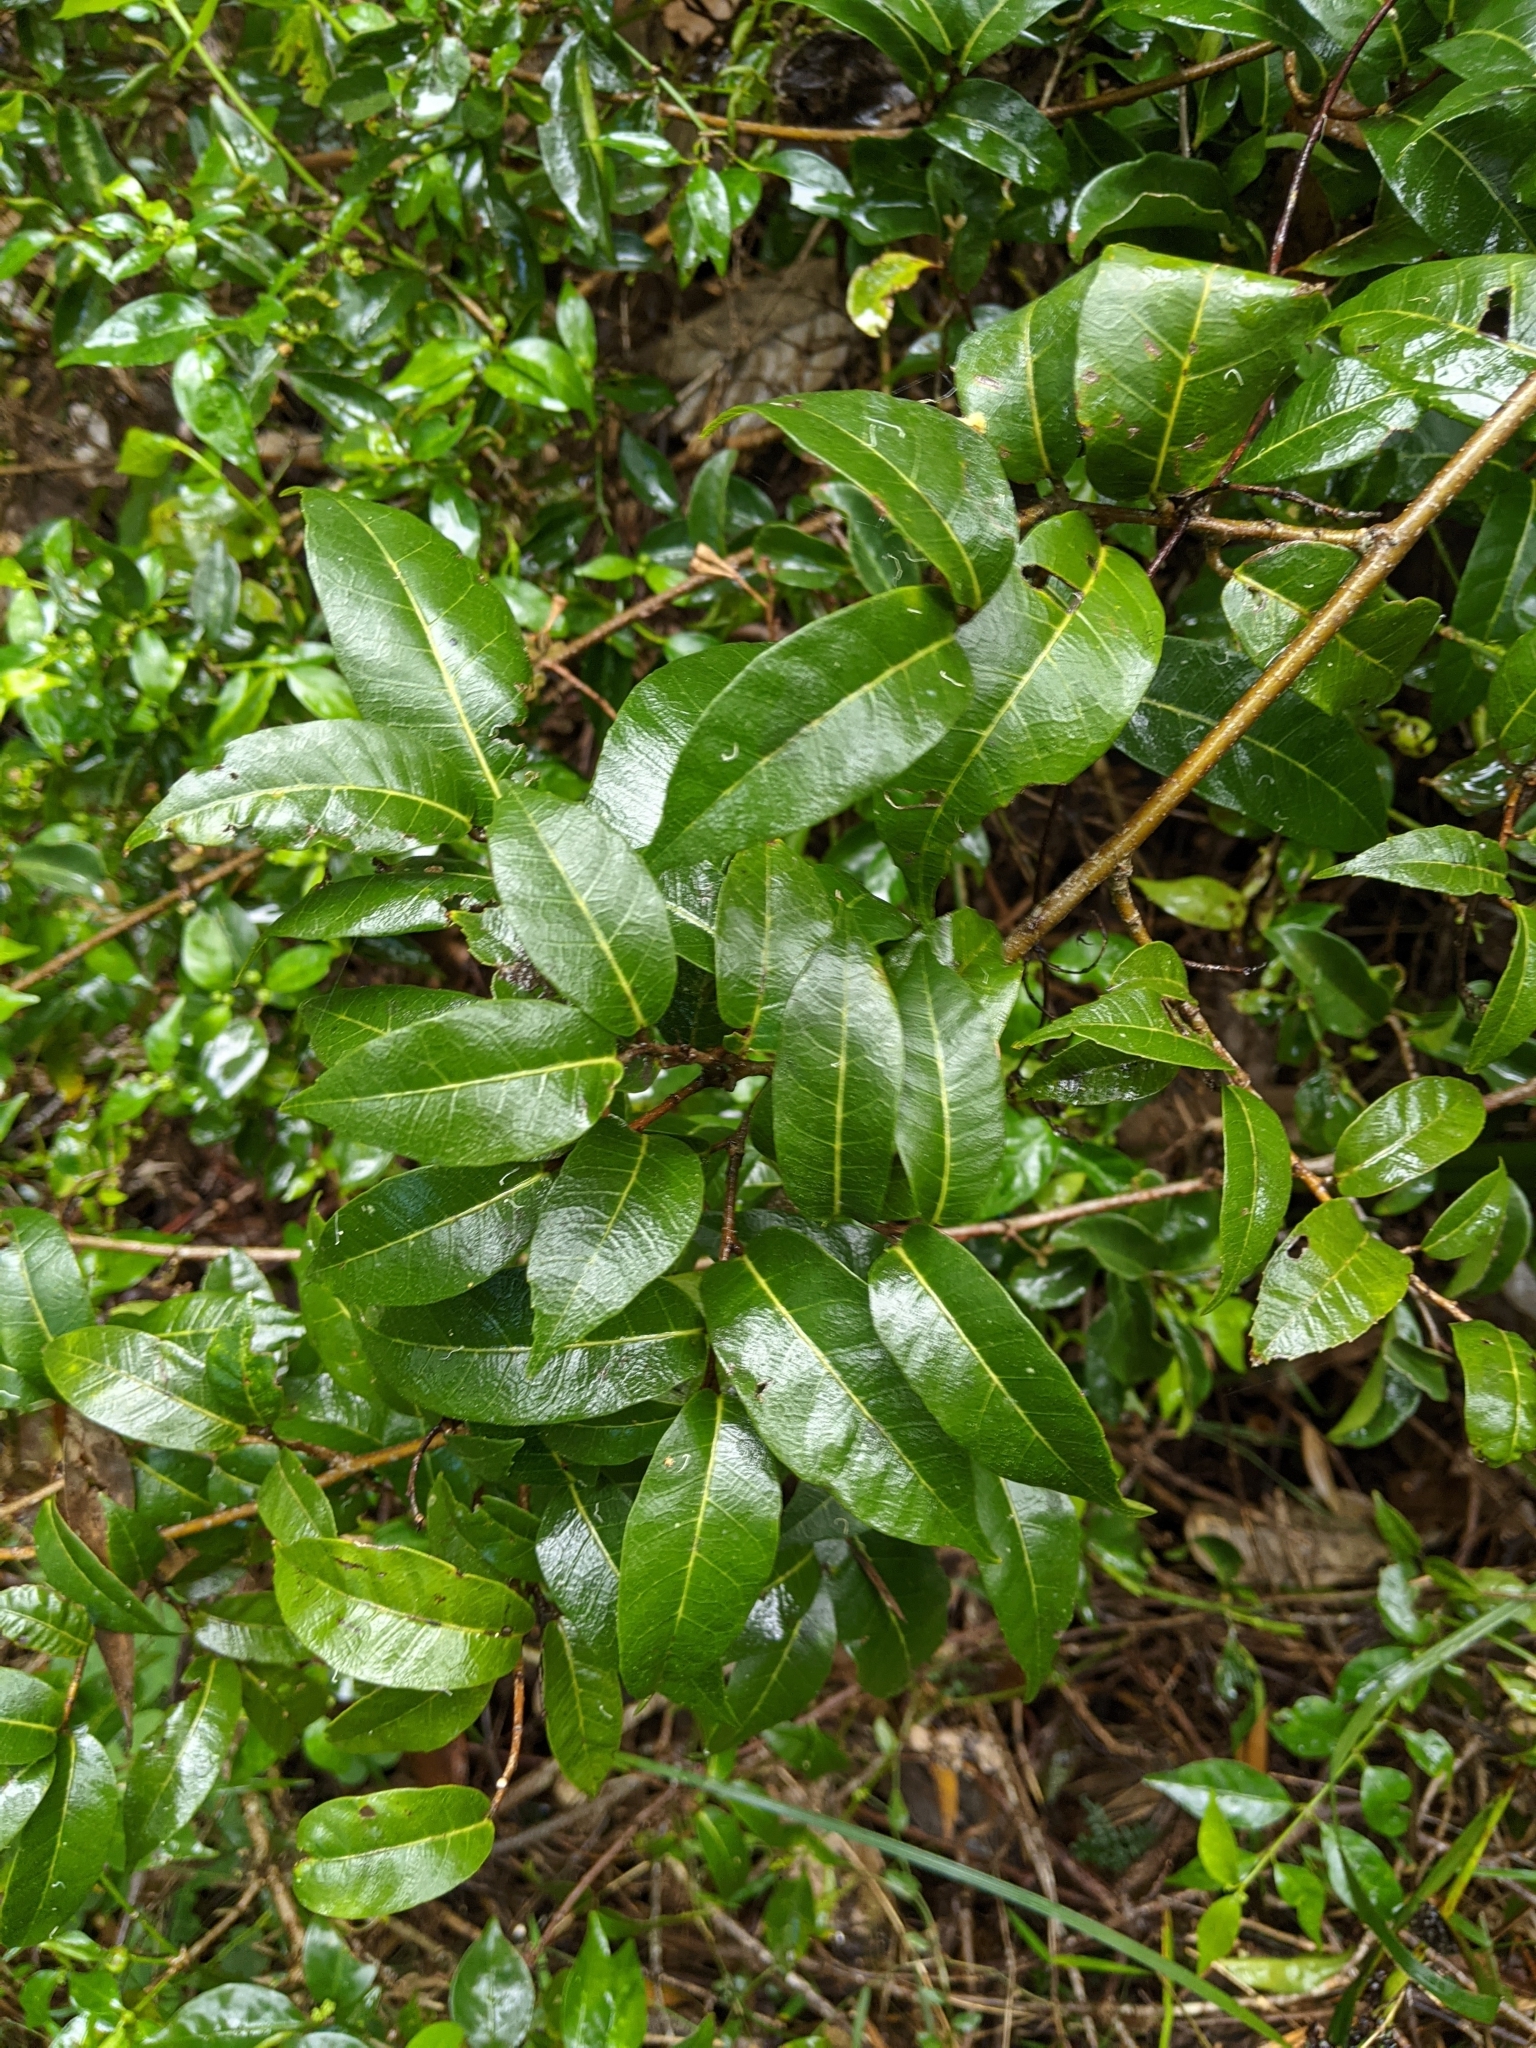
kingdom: Plantae
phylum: Tracheophyta
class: Magnoliopsida
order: Rosales
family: Moraceae
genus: Malaisia
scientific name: Malaisia scandens
